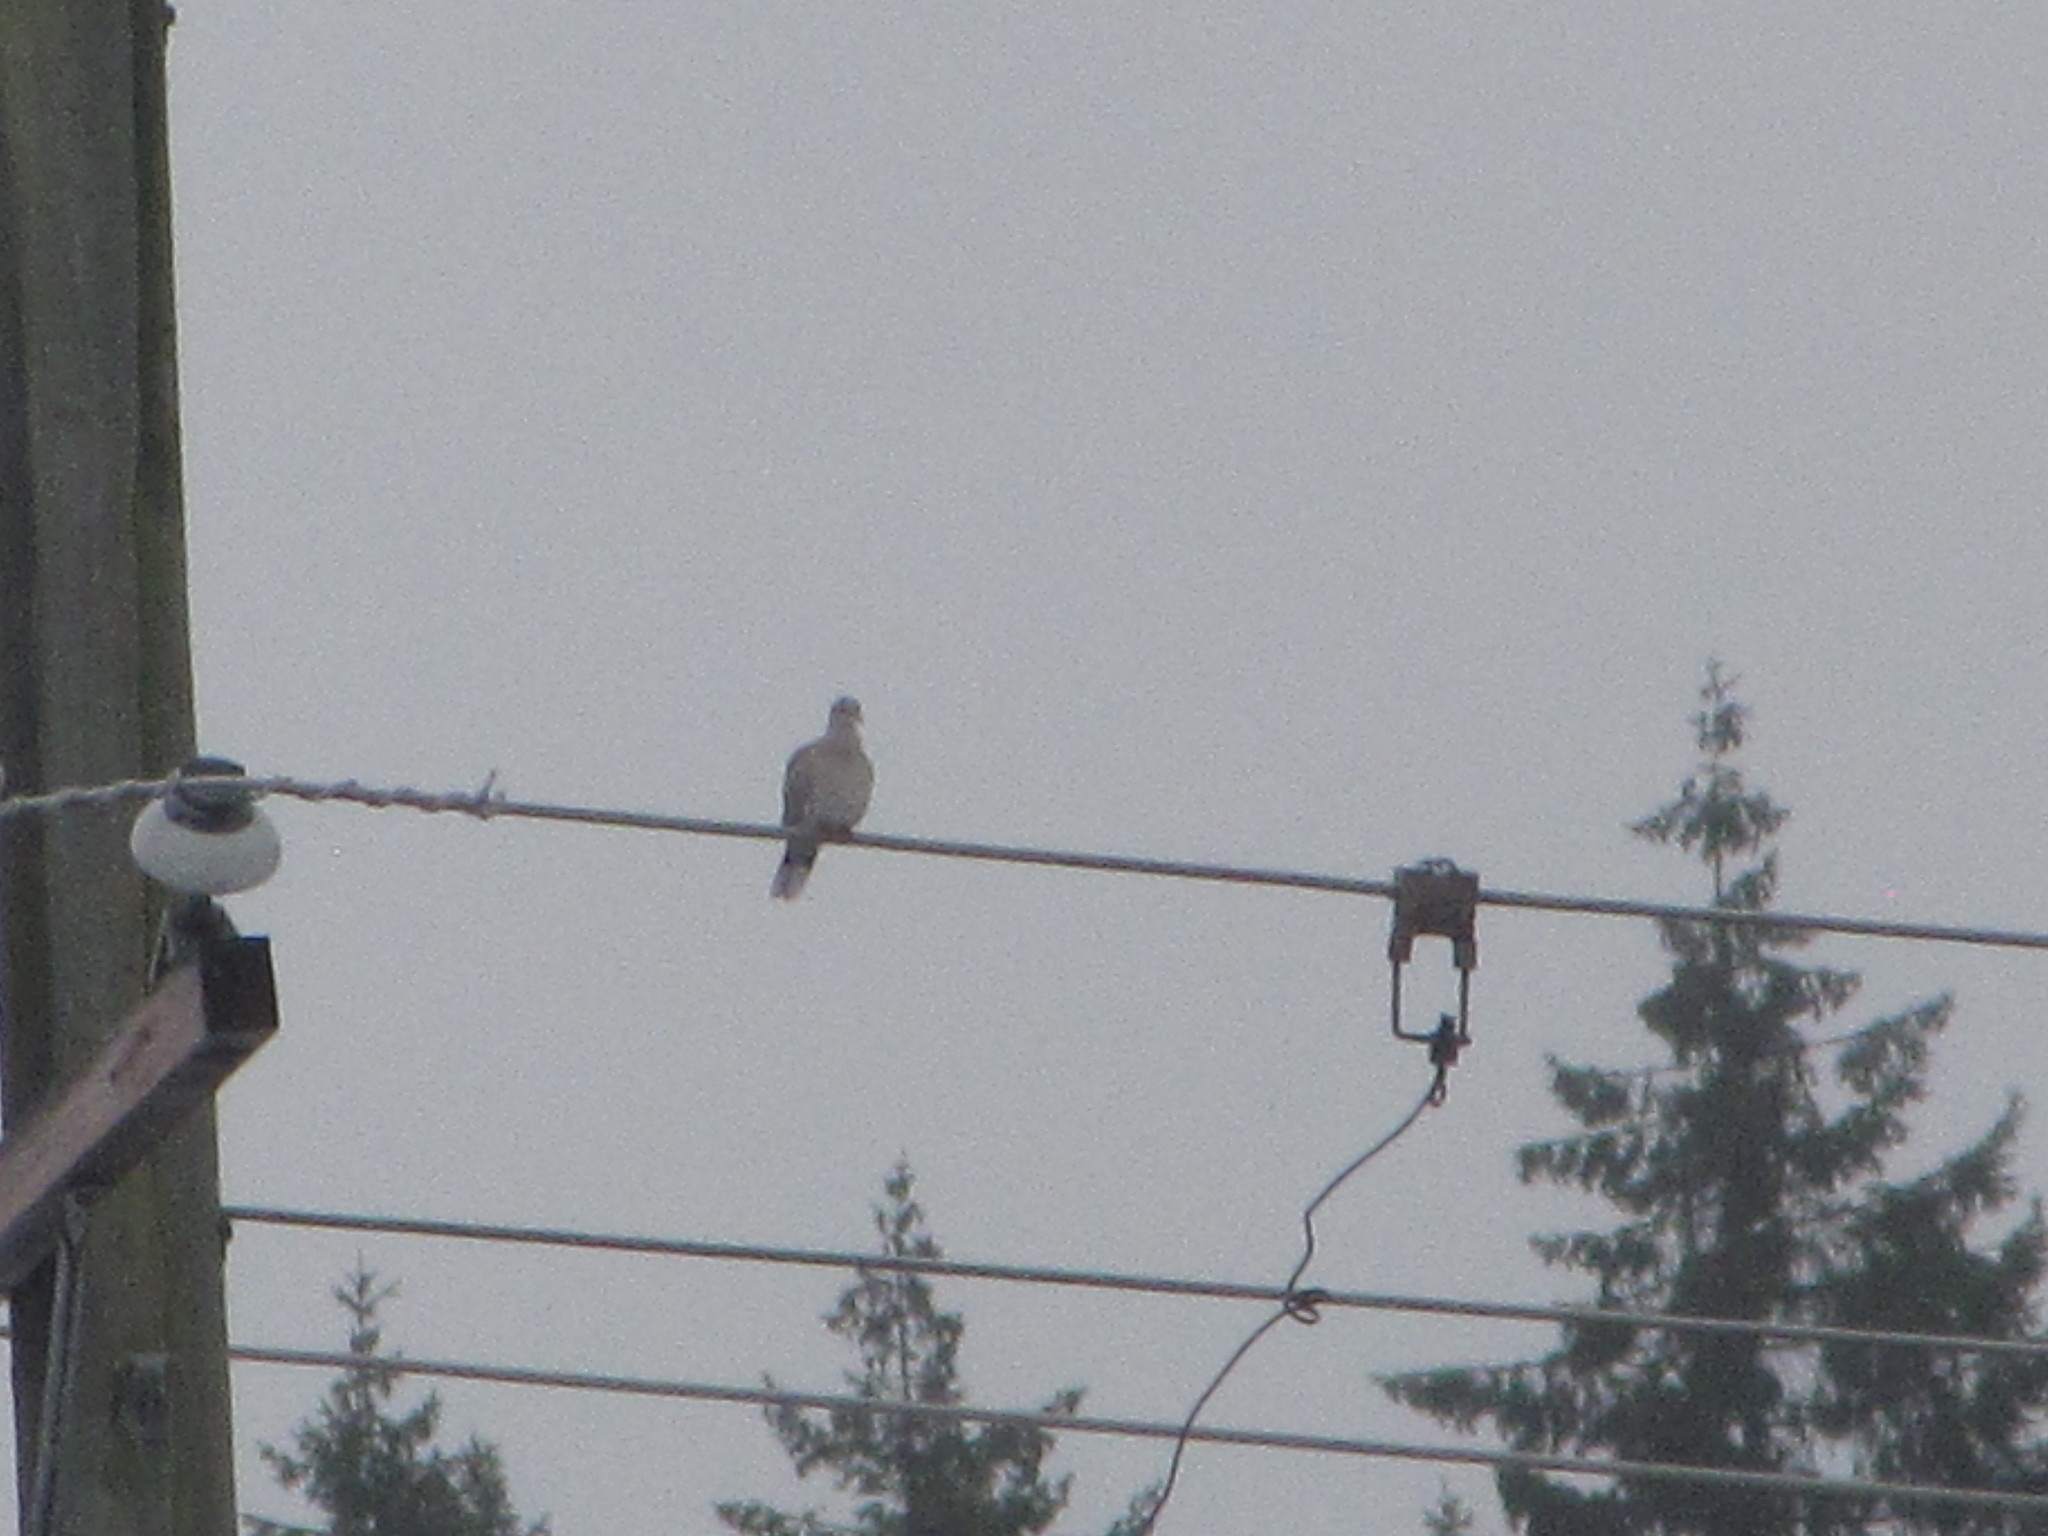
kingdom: Animalia
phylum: Chordata
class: Aves
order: Columbiformes
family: Columbidae
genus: Streptopelia
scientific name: Streptopelia decaocto
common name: Eurasian collared dove
